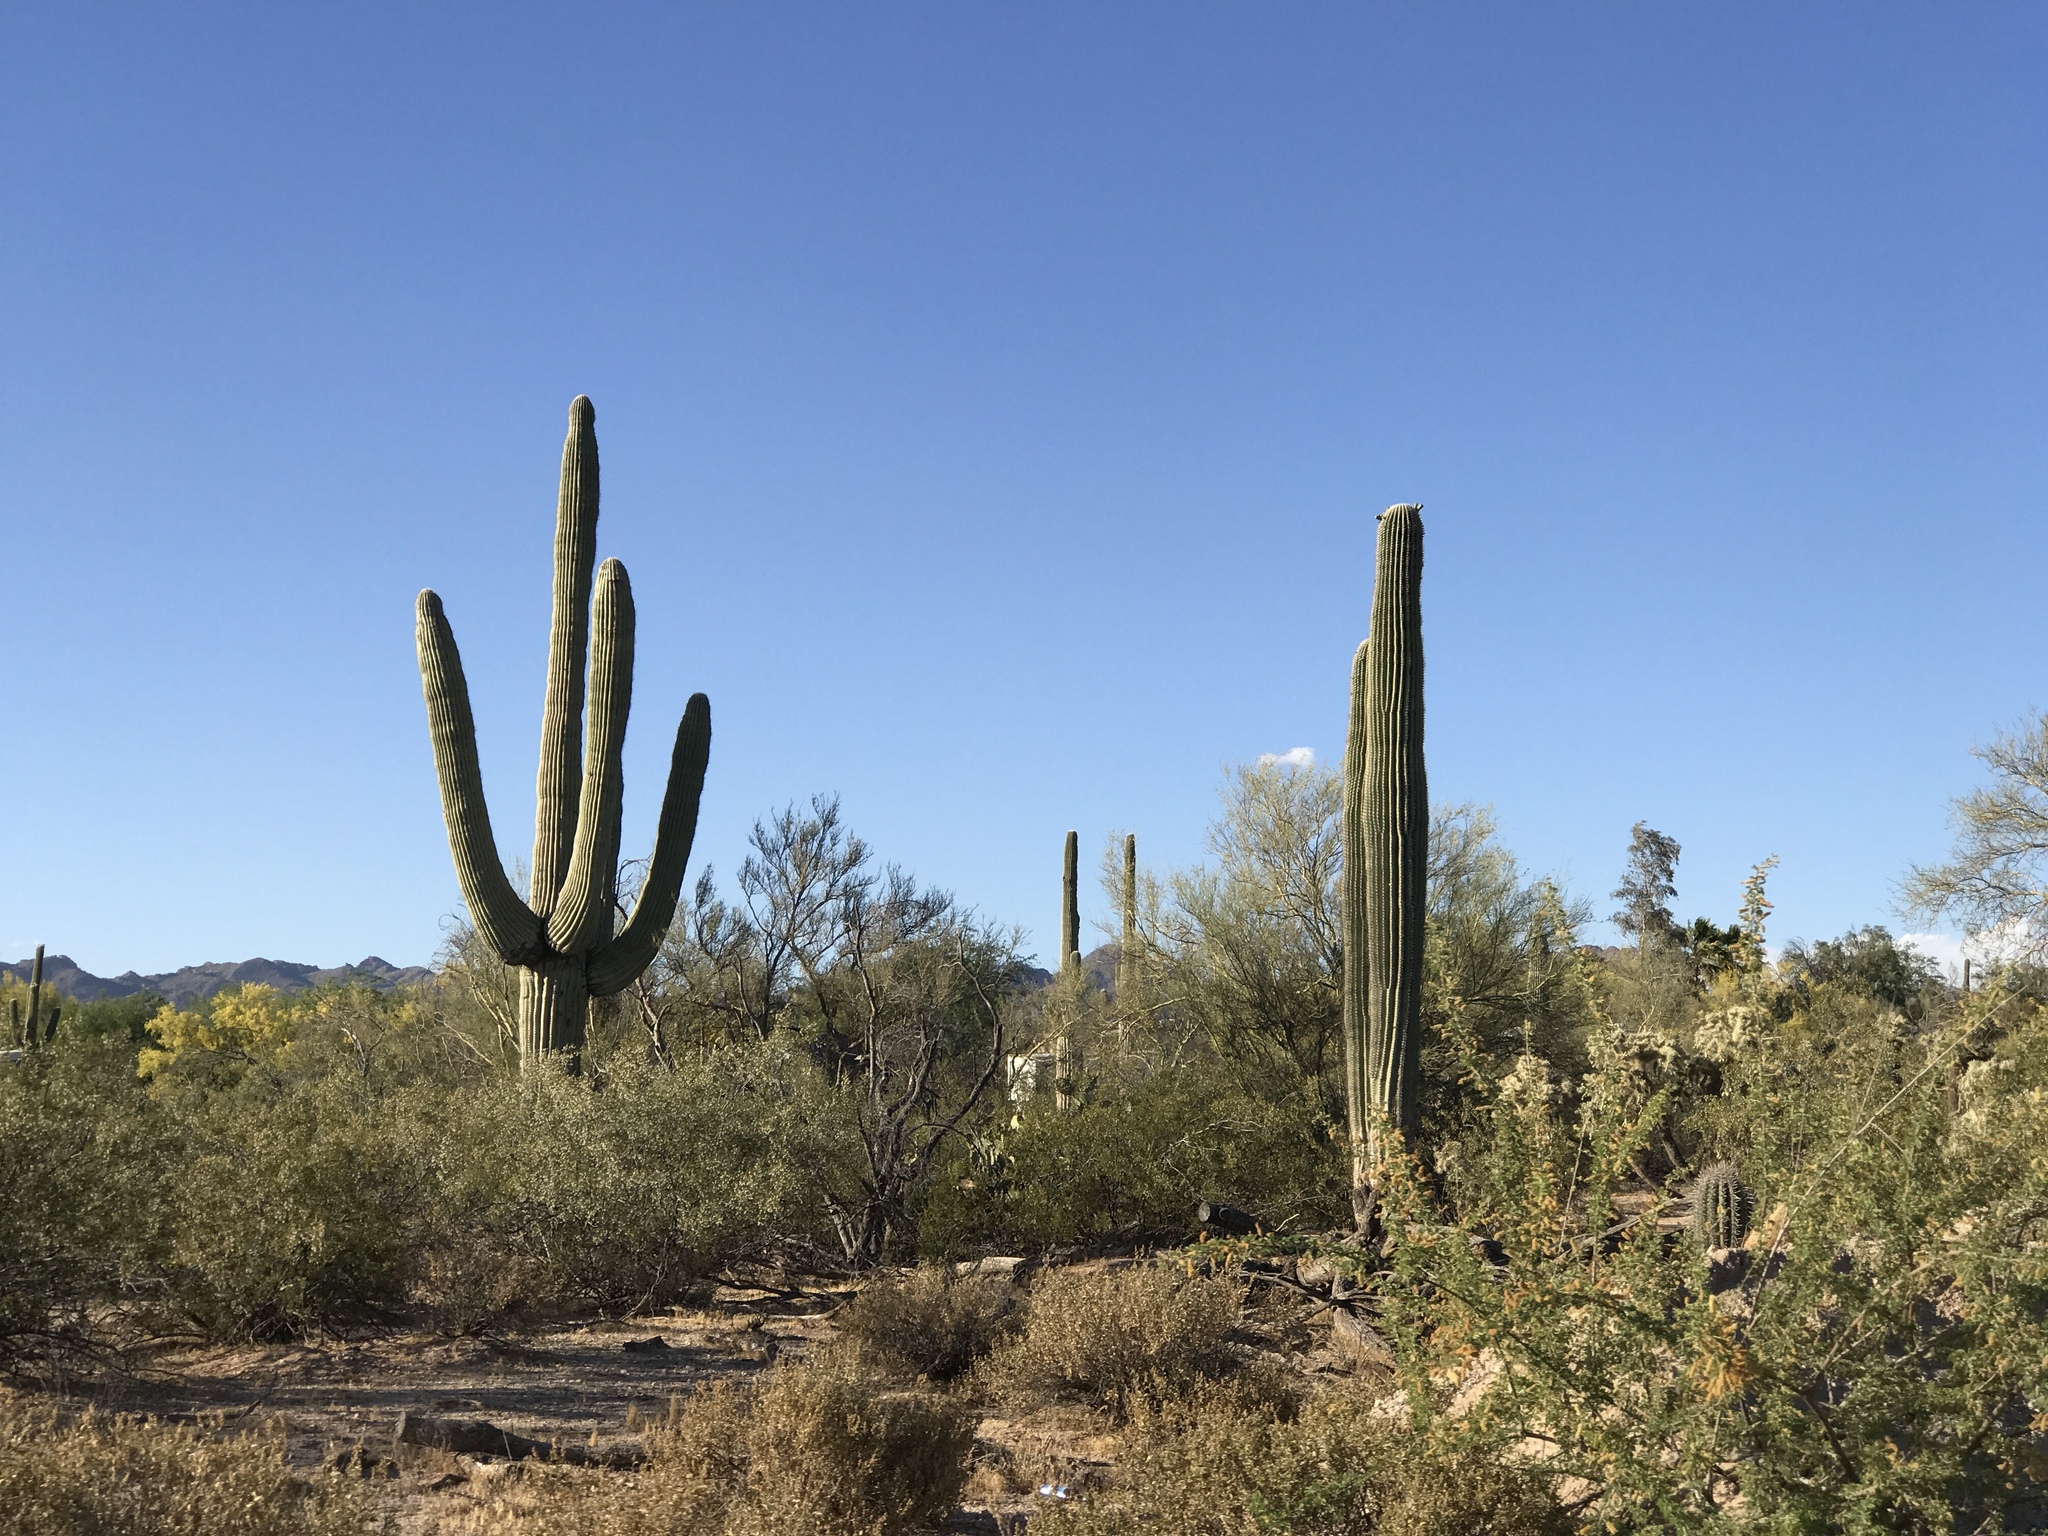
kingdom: Plantae
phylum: Tracheophyta
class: Magnoliopsida
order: Caryophyllales
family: Cactaceae
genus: Carnegiea
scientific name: Carnegiea gigantea
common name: Saguaro
